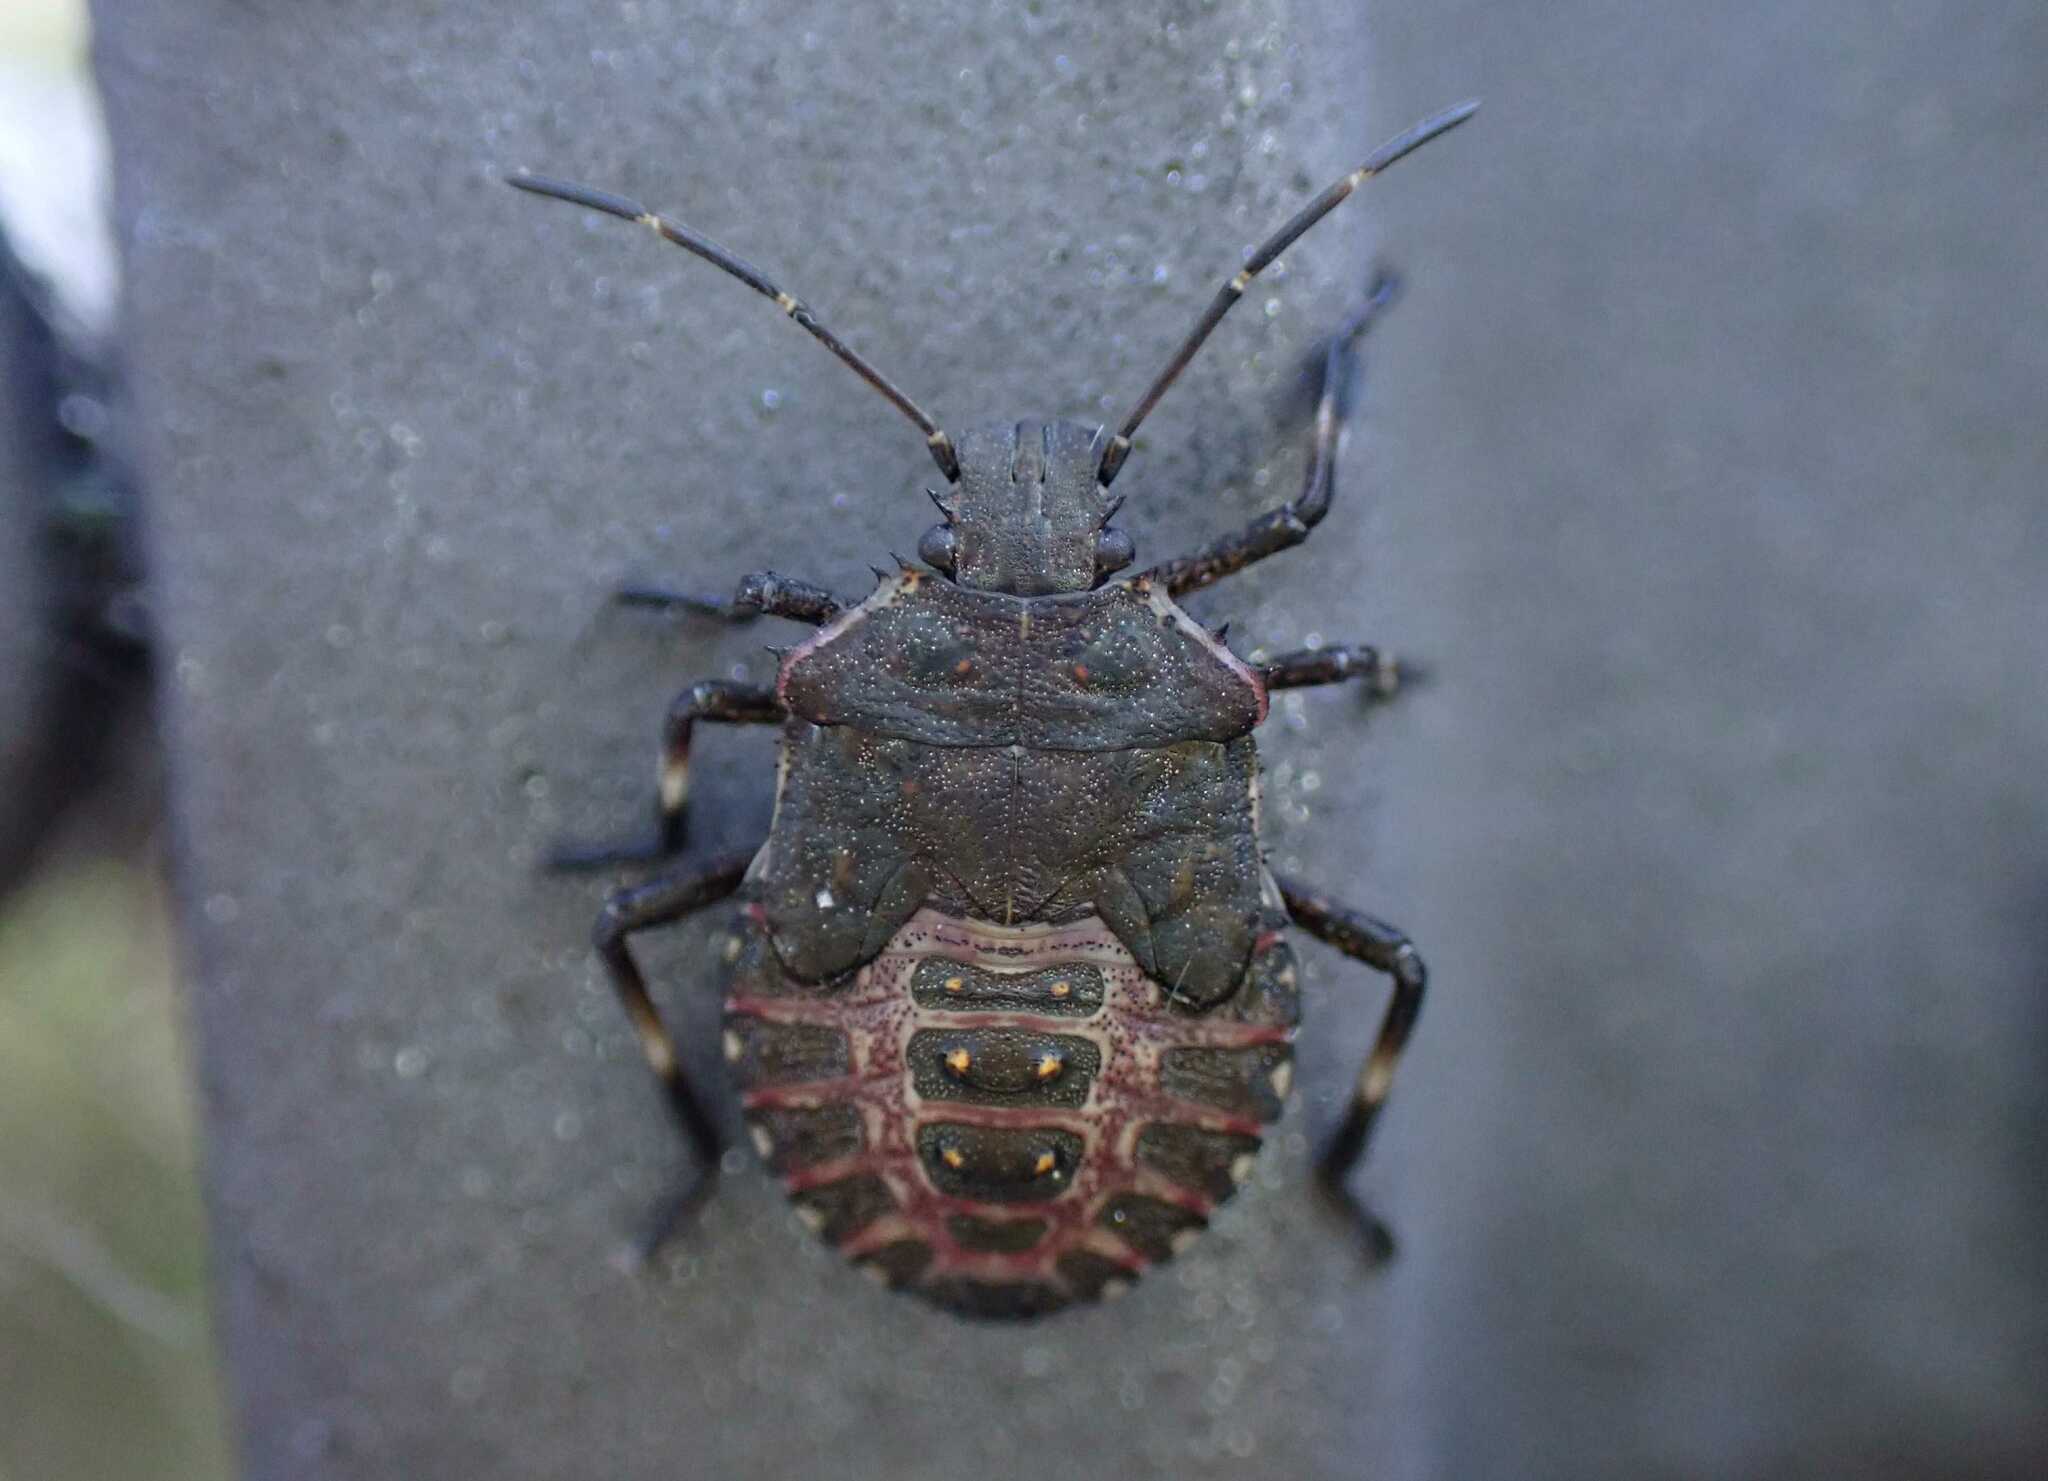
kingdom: Animalia
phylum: Arthropoda
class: Insecta
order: Hemiptera
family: Pentatomidae
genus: Halyomorpha
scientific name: Halyomorpha halys
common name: Brown marmorated stink bug
